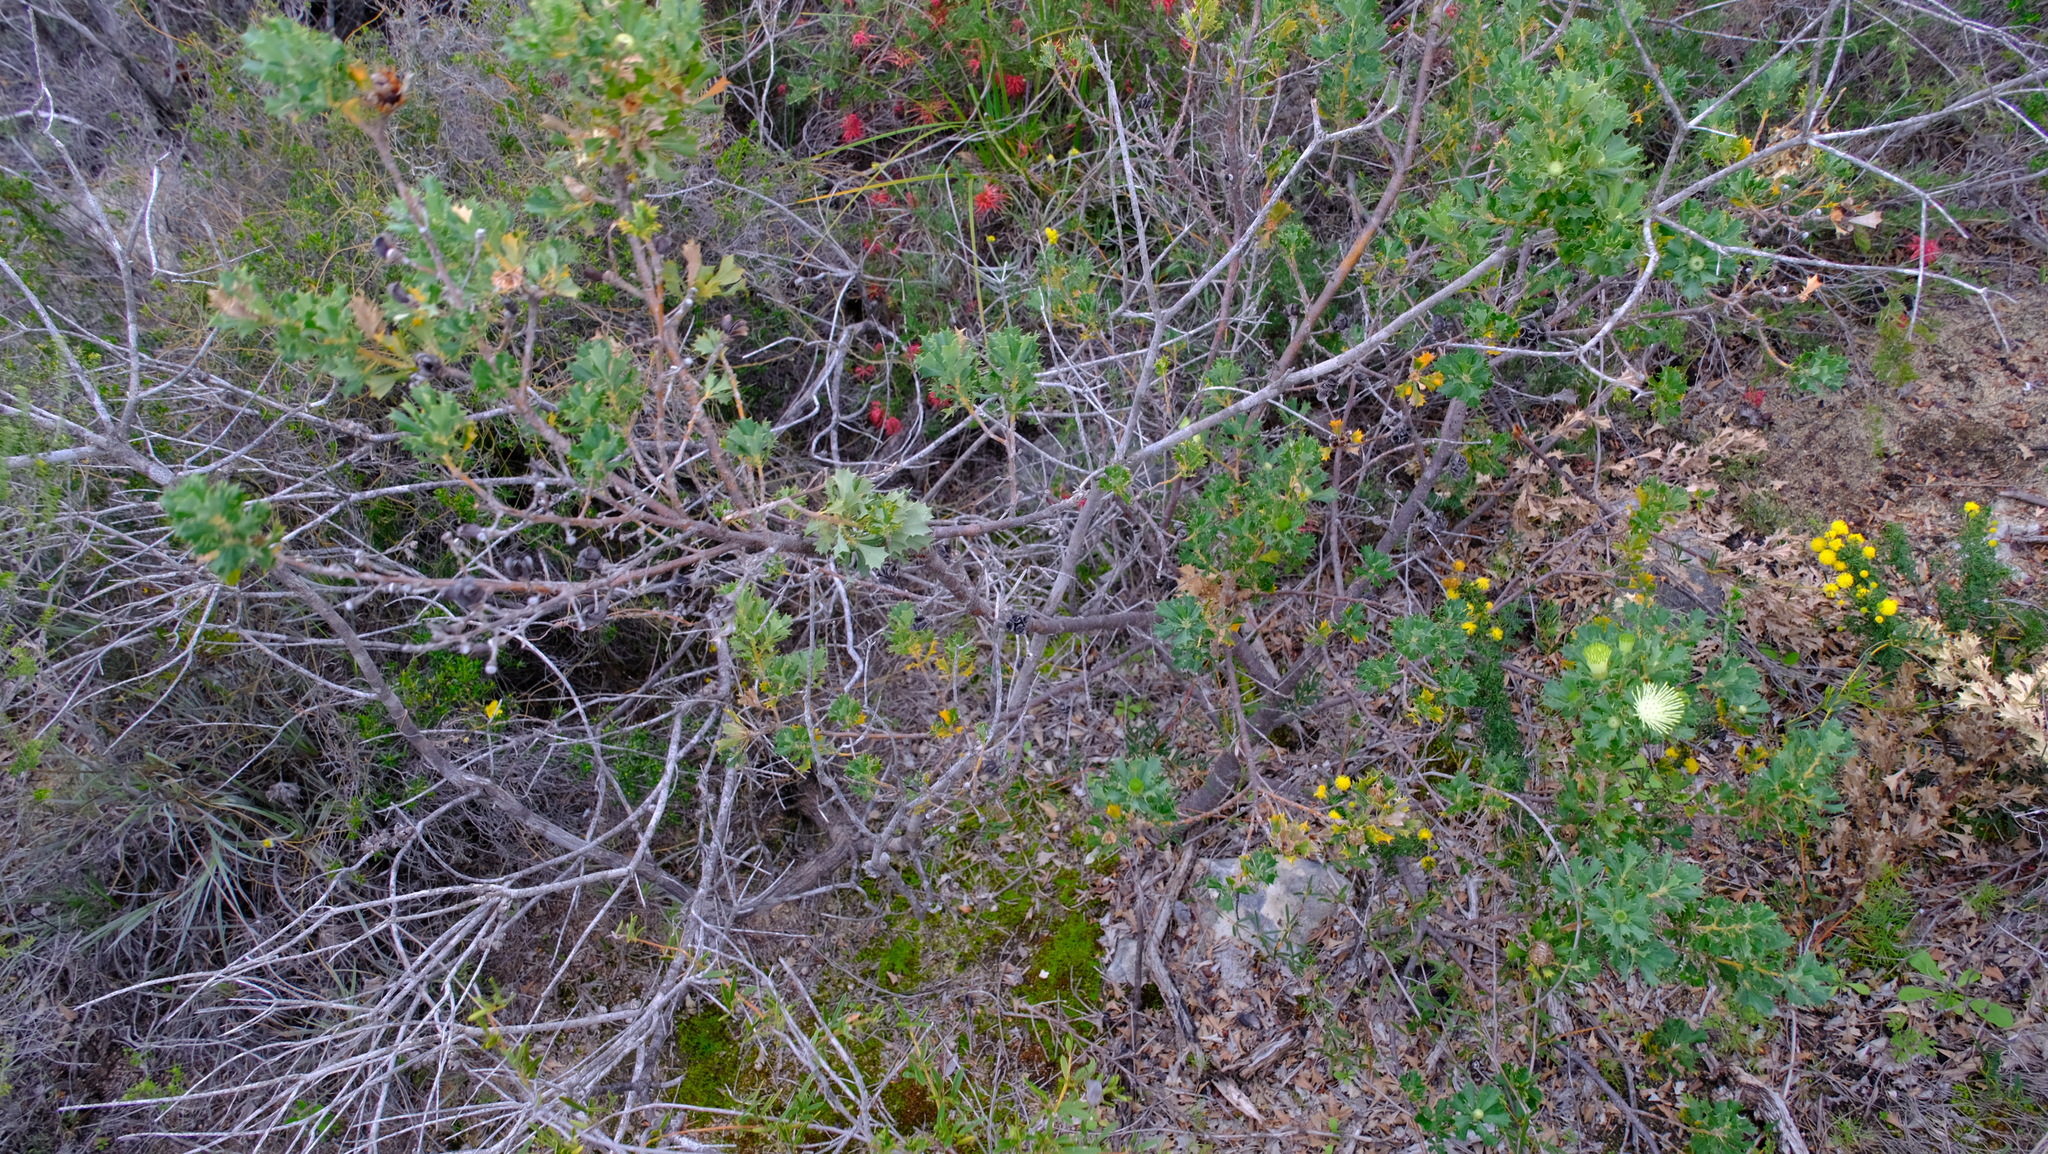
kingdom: Plantae
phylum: Tracheophyta
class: Magnoliopsida
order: Proteales
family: Proteaceae
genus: Banksia
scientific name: Banksia sessilis
